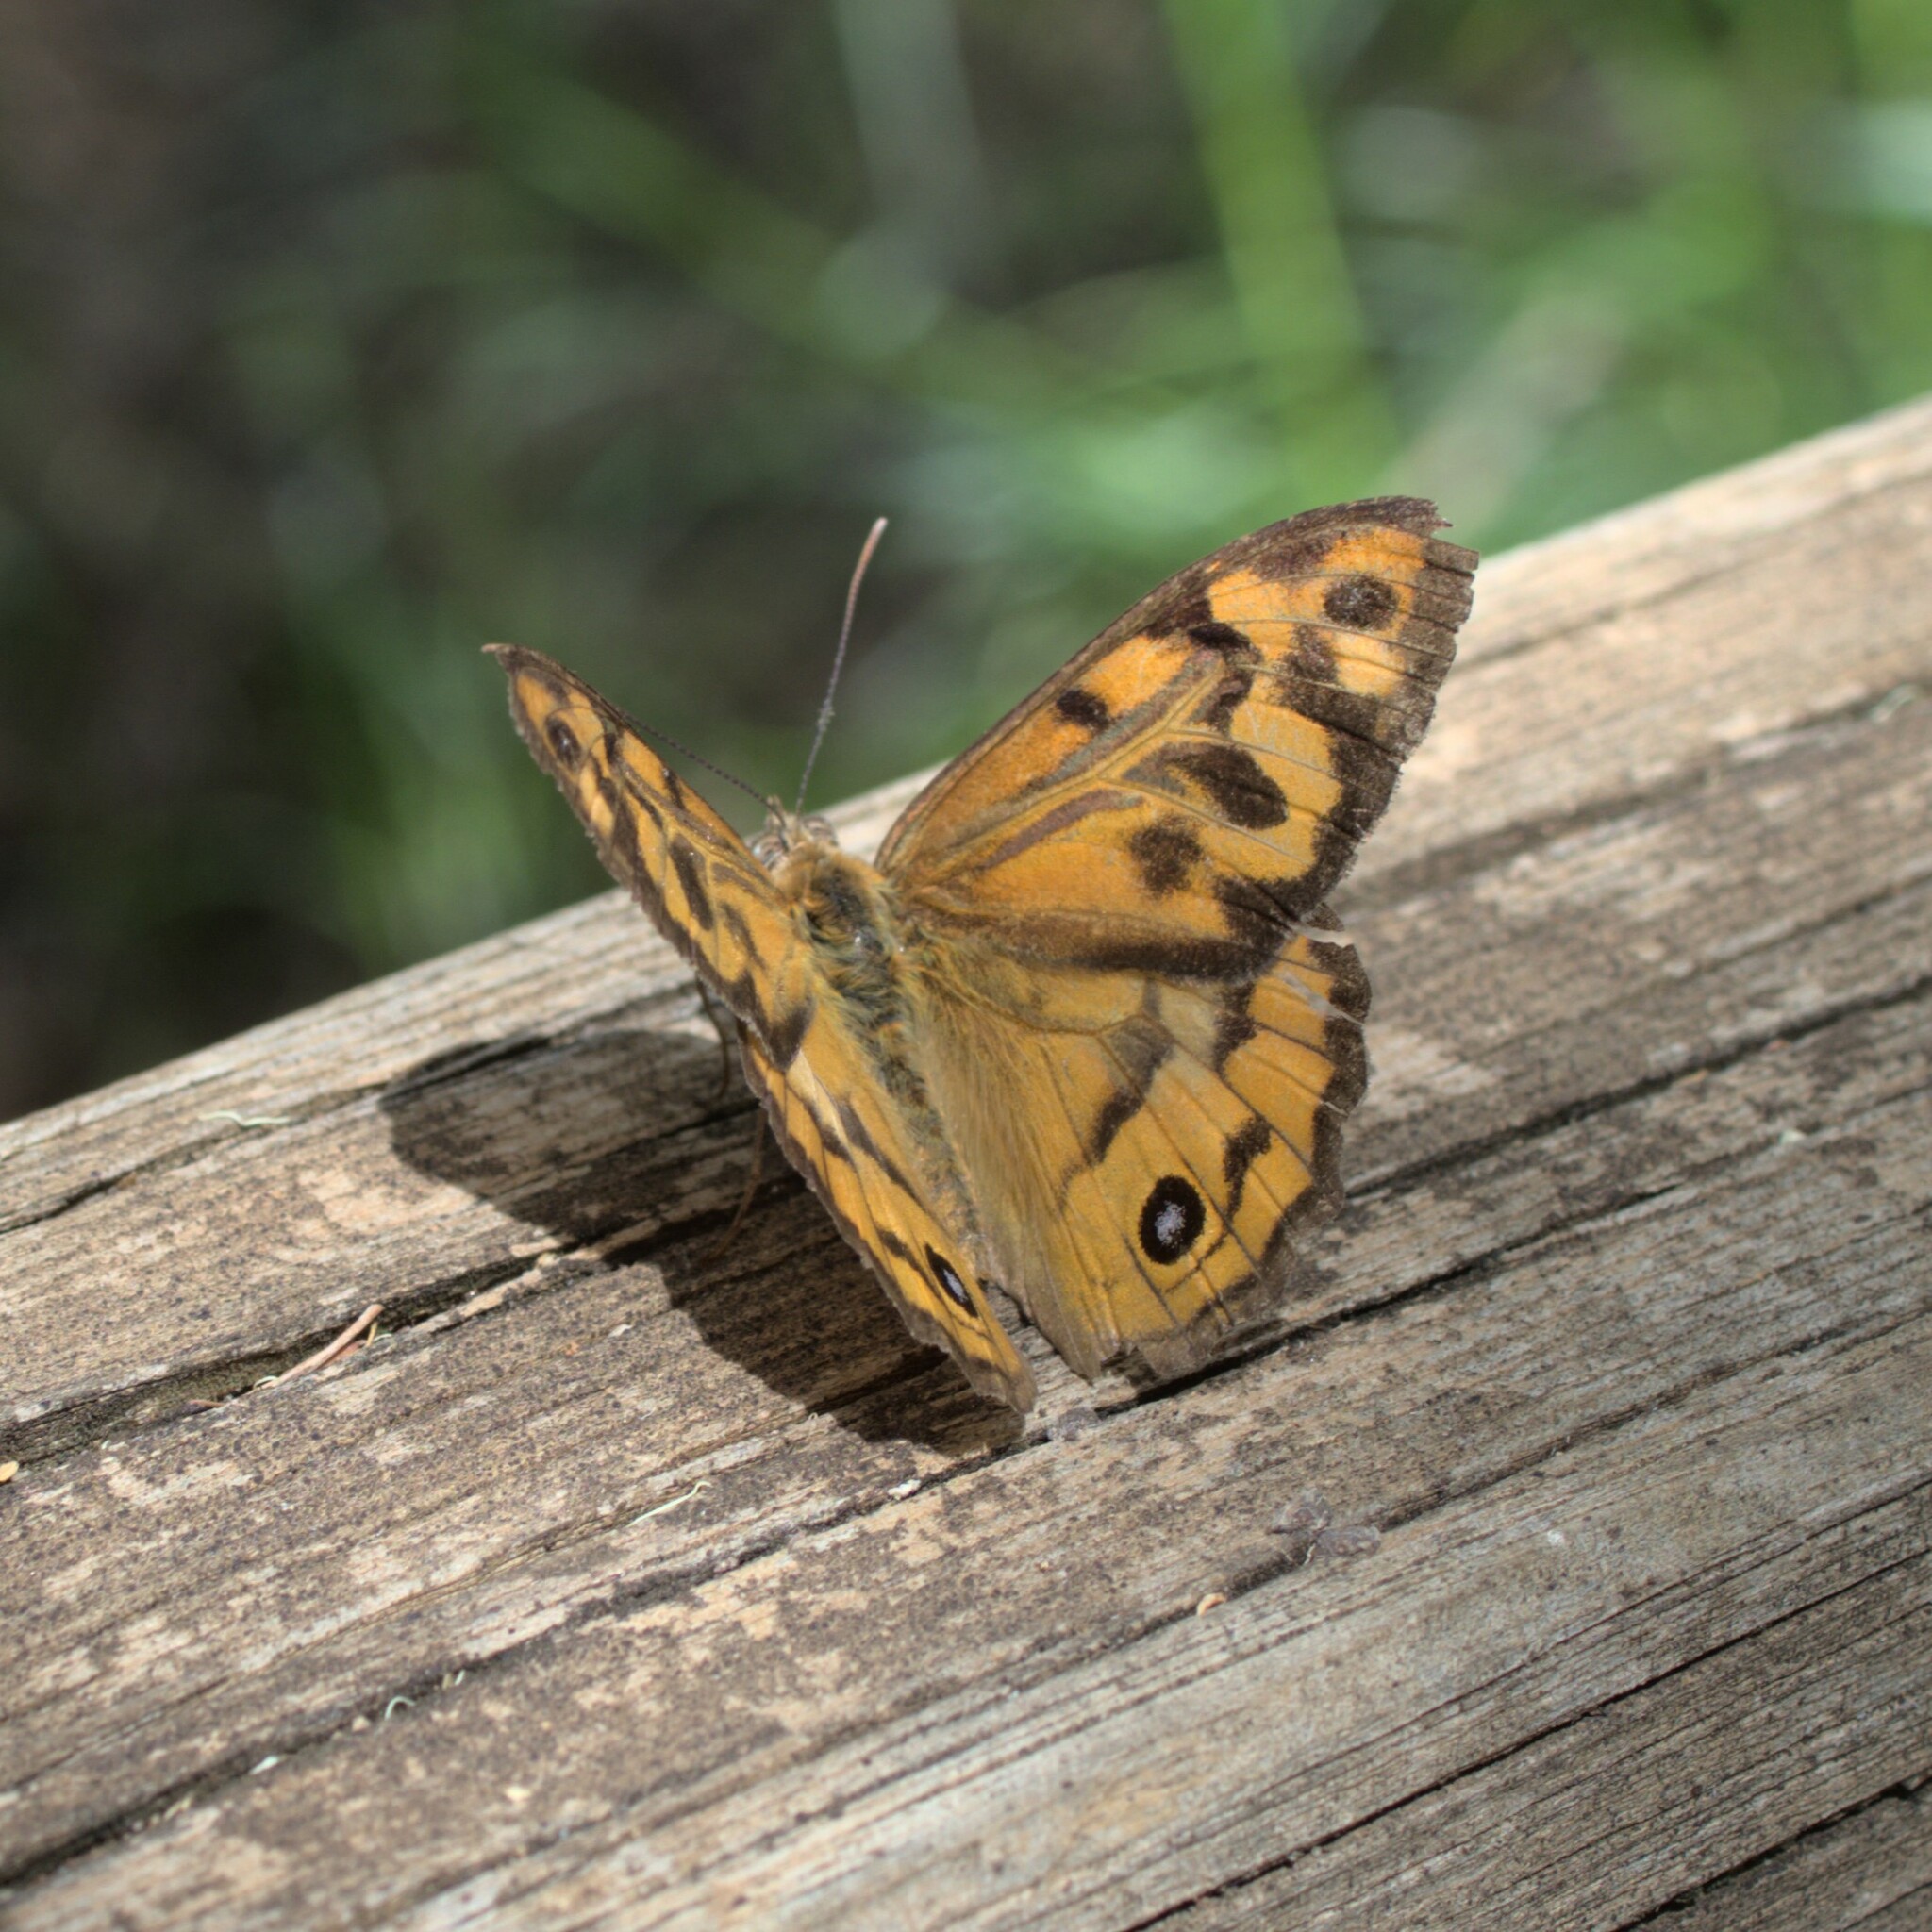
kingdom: Animalia
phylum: Arthropoda
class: Insecta
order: Lepidoptera
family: Nymphalidae
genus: Heteronympha
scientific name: Heteronympha merope
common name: Common brown
